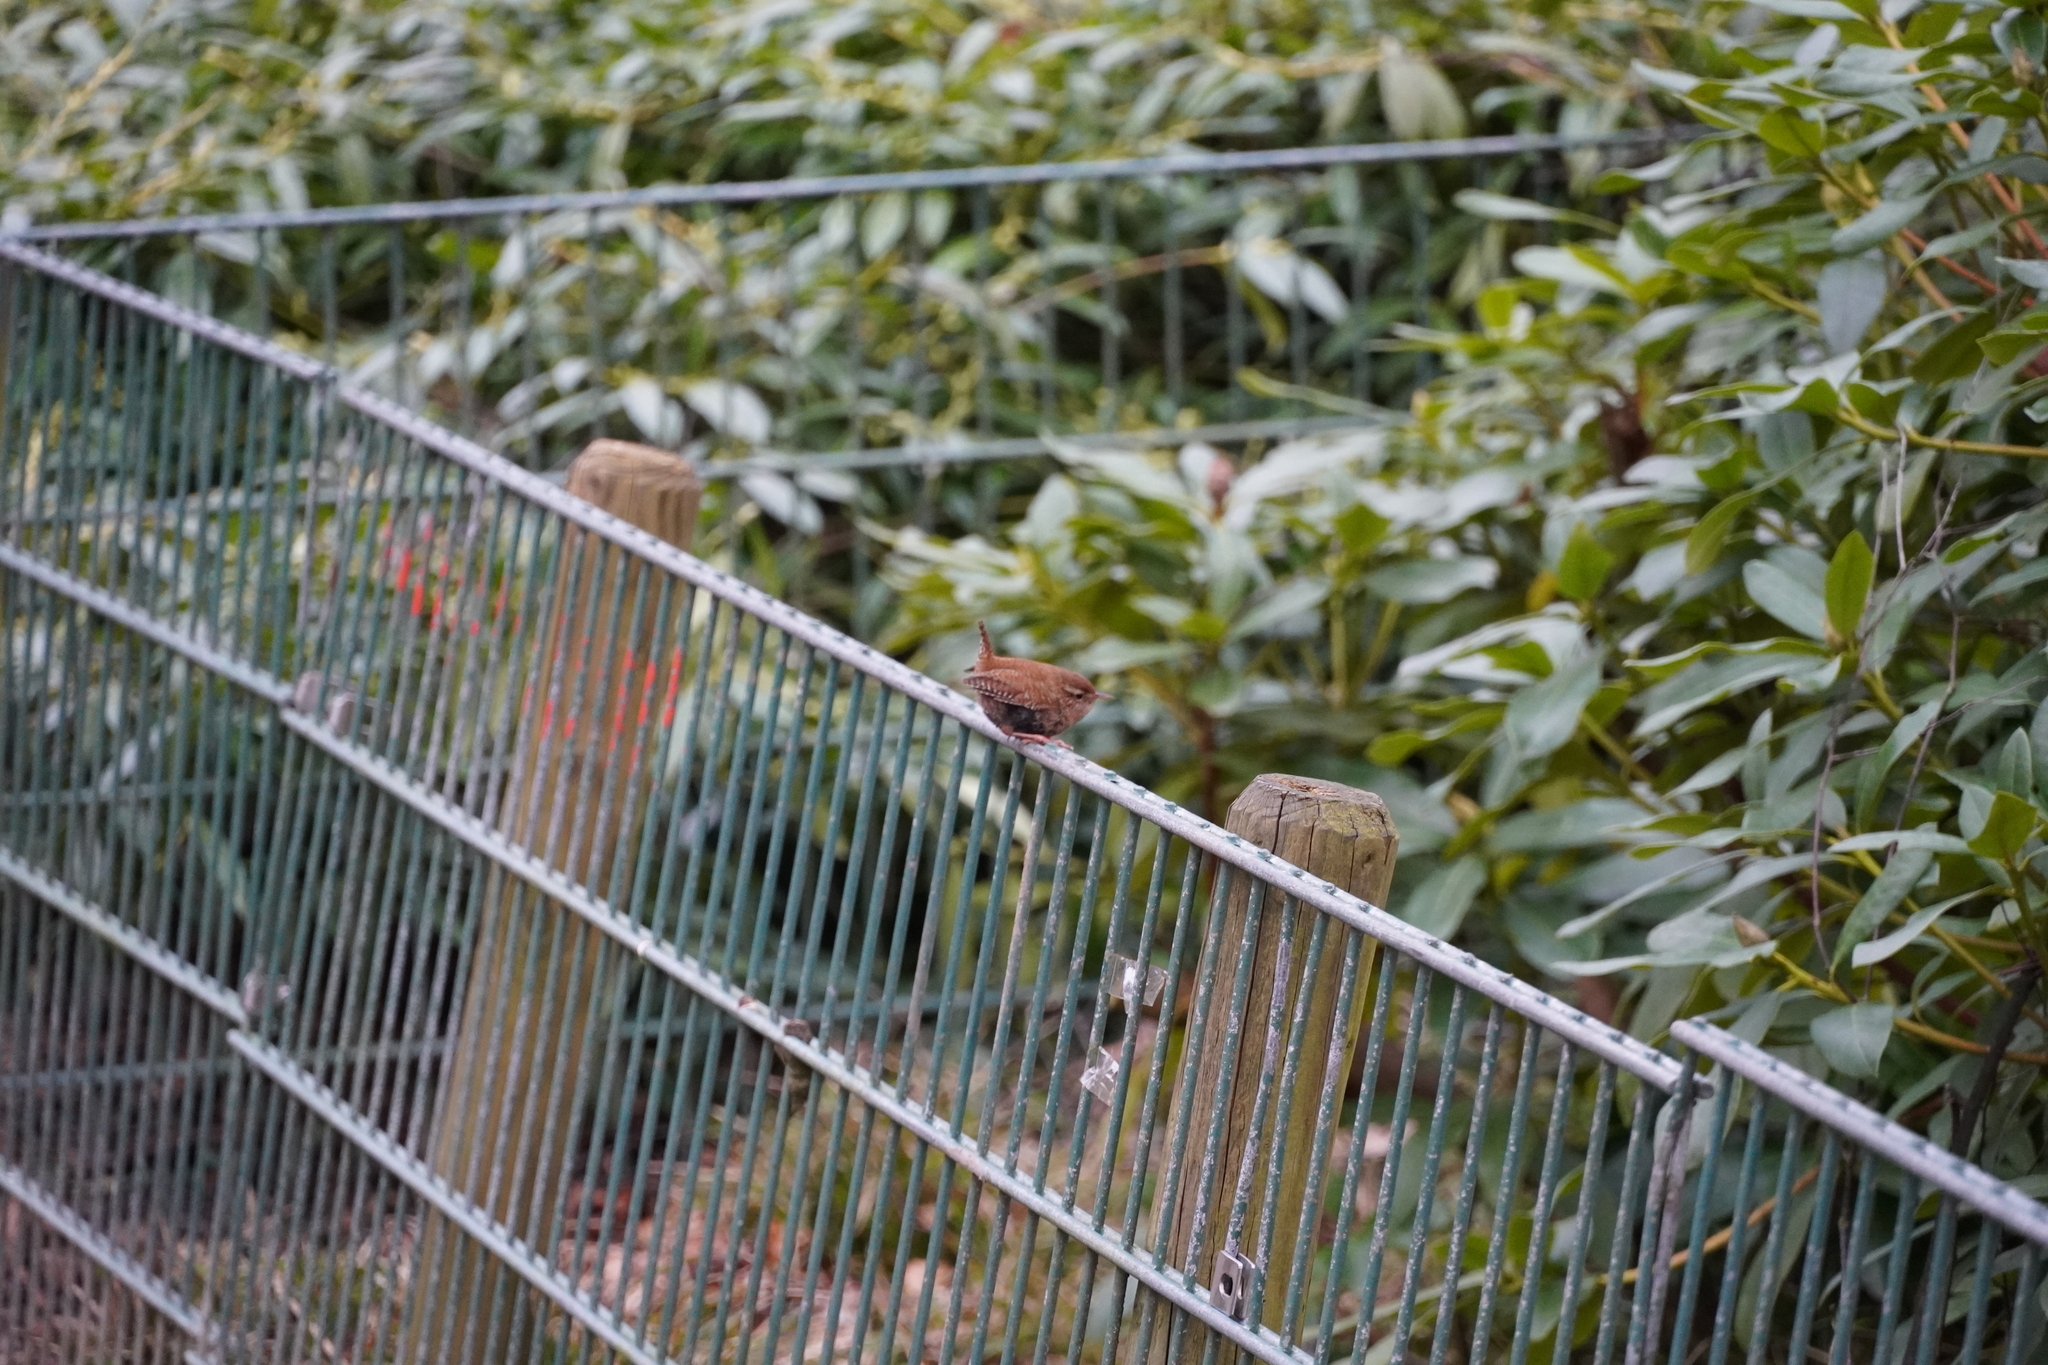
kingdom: Animalia
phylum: Chordata
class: Aves
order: Passeriformes
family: Troglodytidae
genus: Troglodytes
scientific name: Troglodytes troglodytes
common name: Eurasian wren
